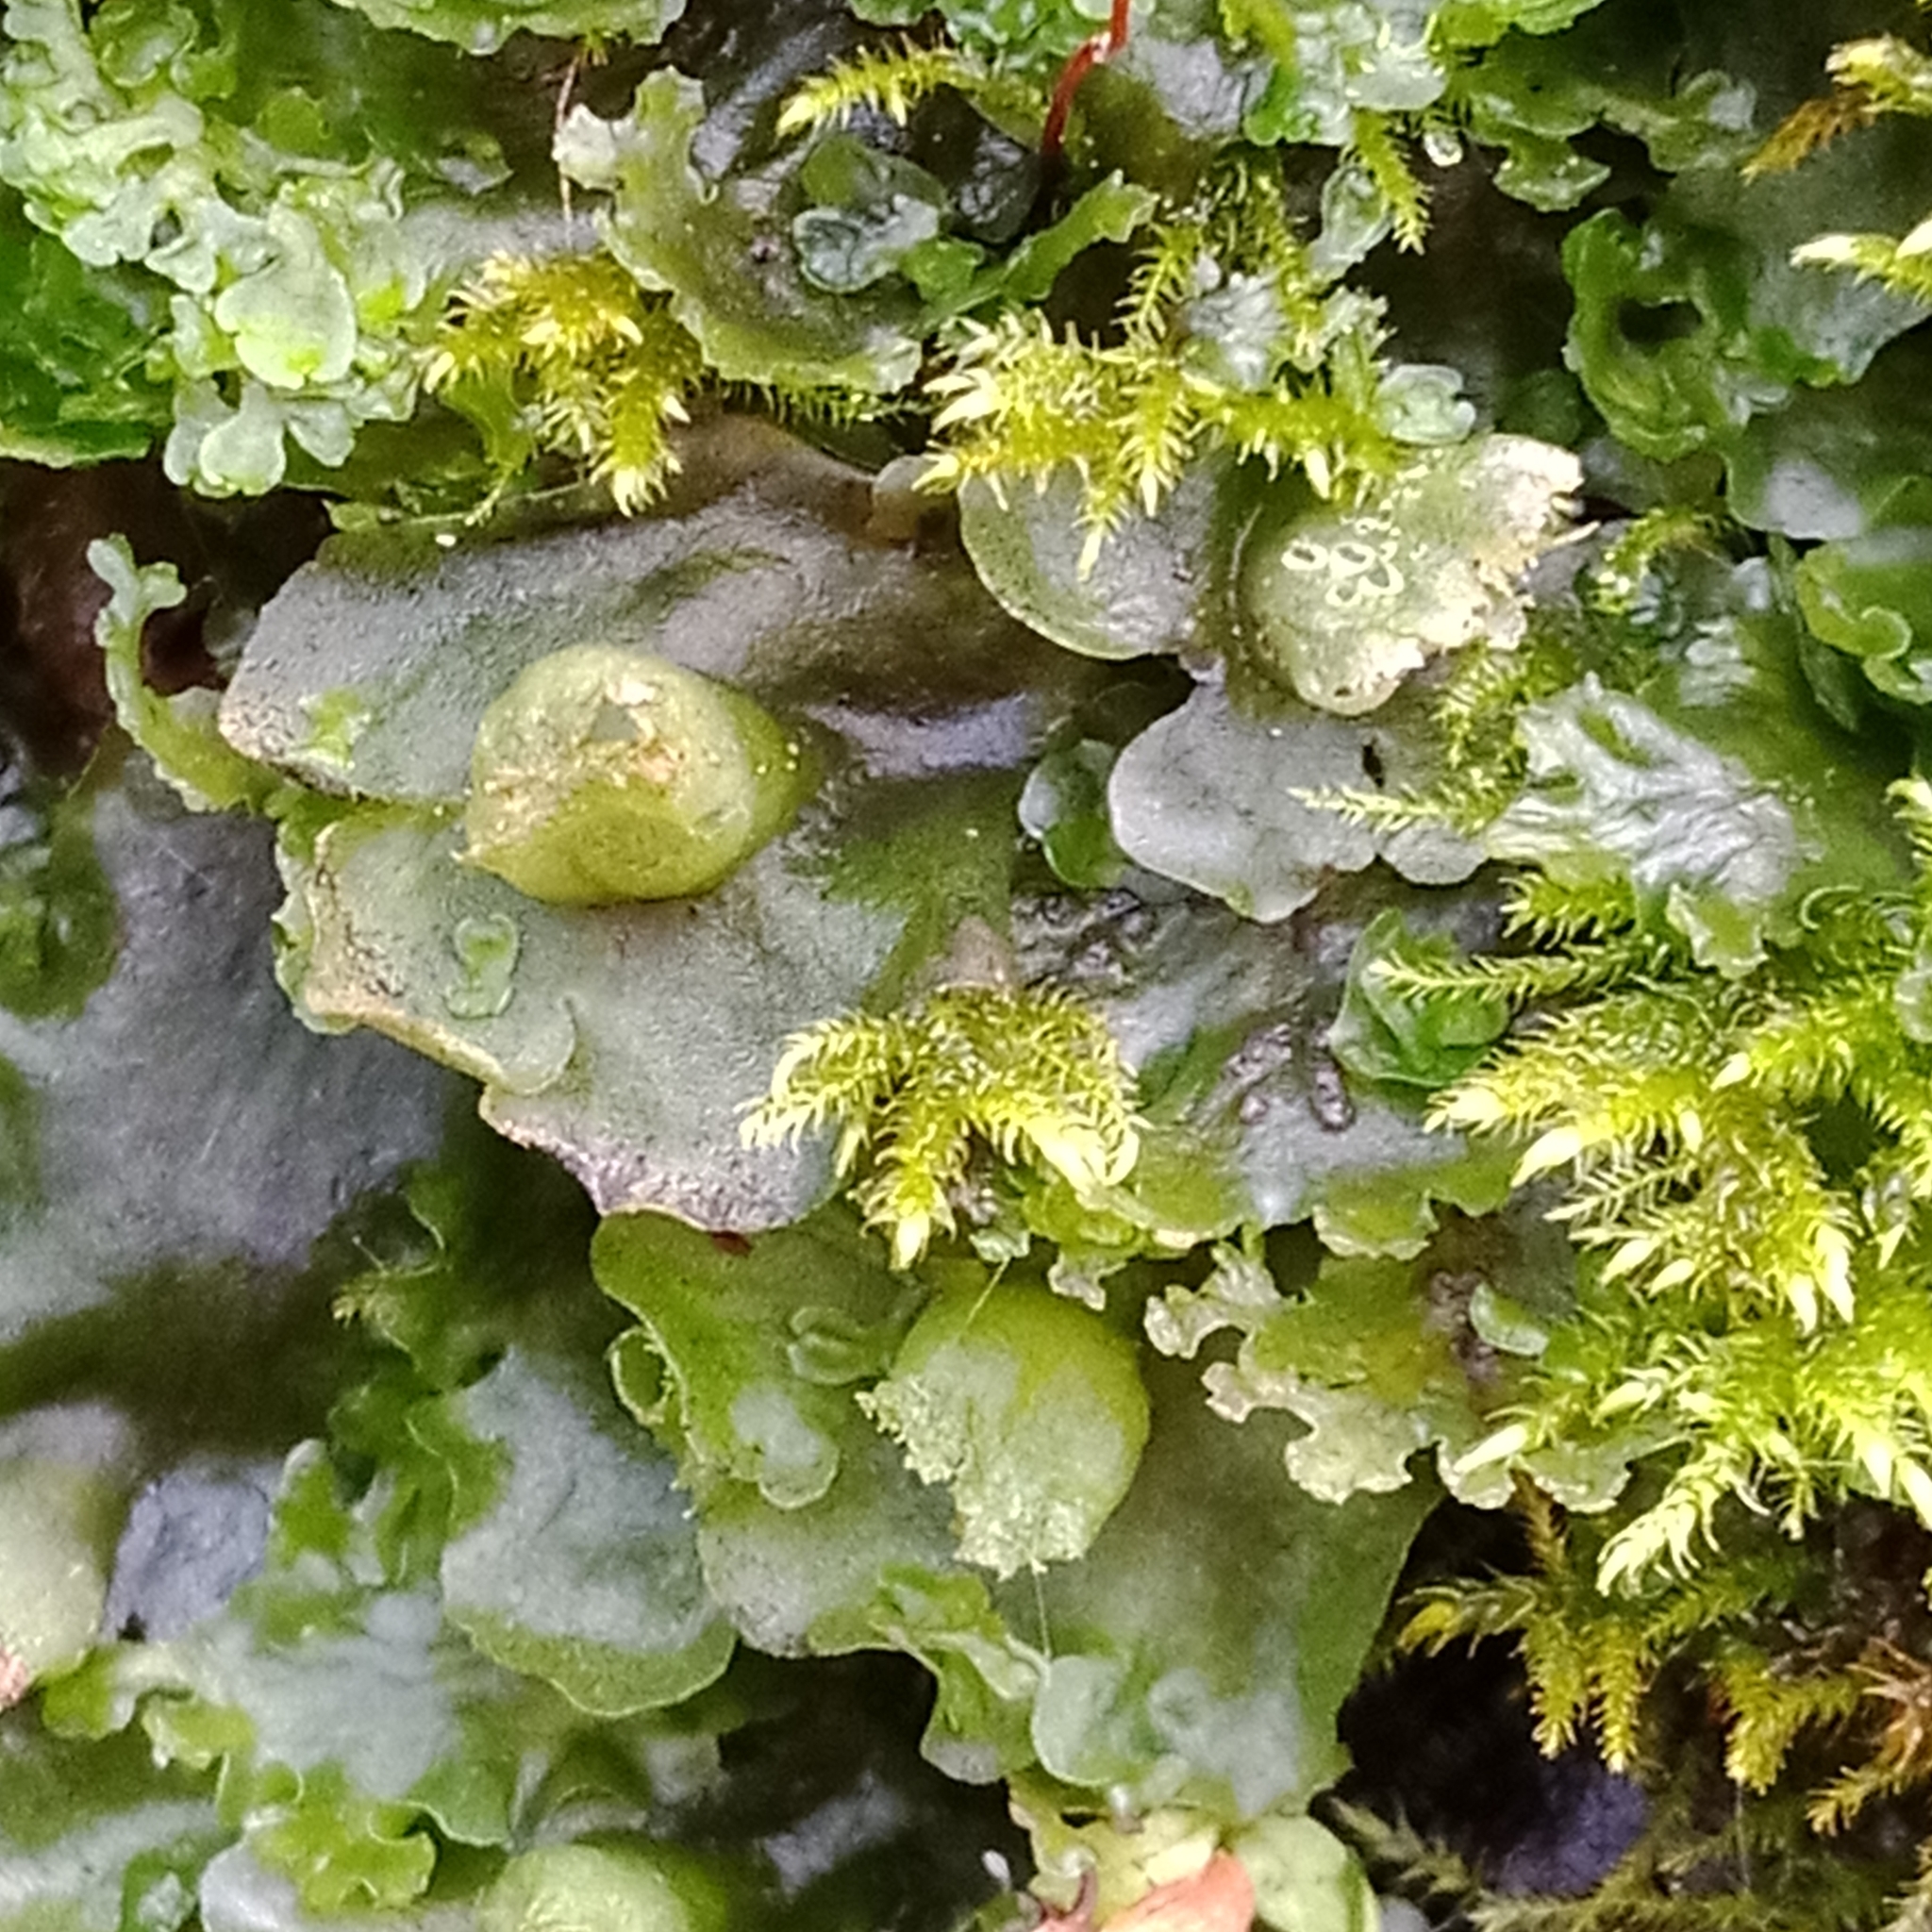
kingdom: Plantae
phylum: Marchantiophyta
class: Jungermanniopsida
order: Pelliales
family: Pelliaceae
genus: Apopellia
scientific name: Apopellia endiviifolia
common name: Endive pellia
